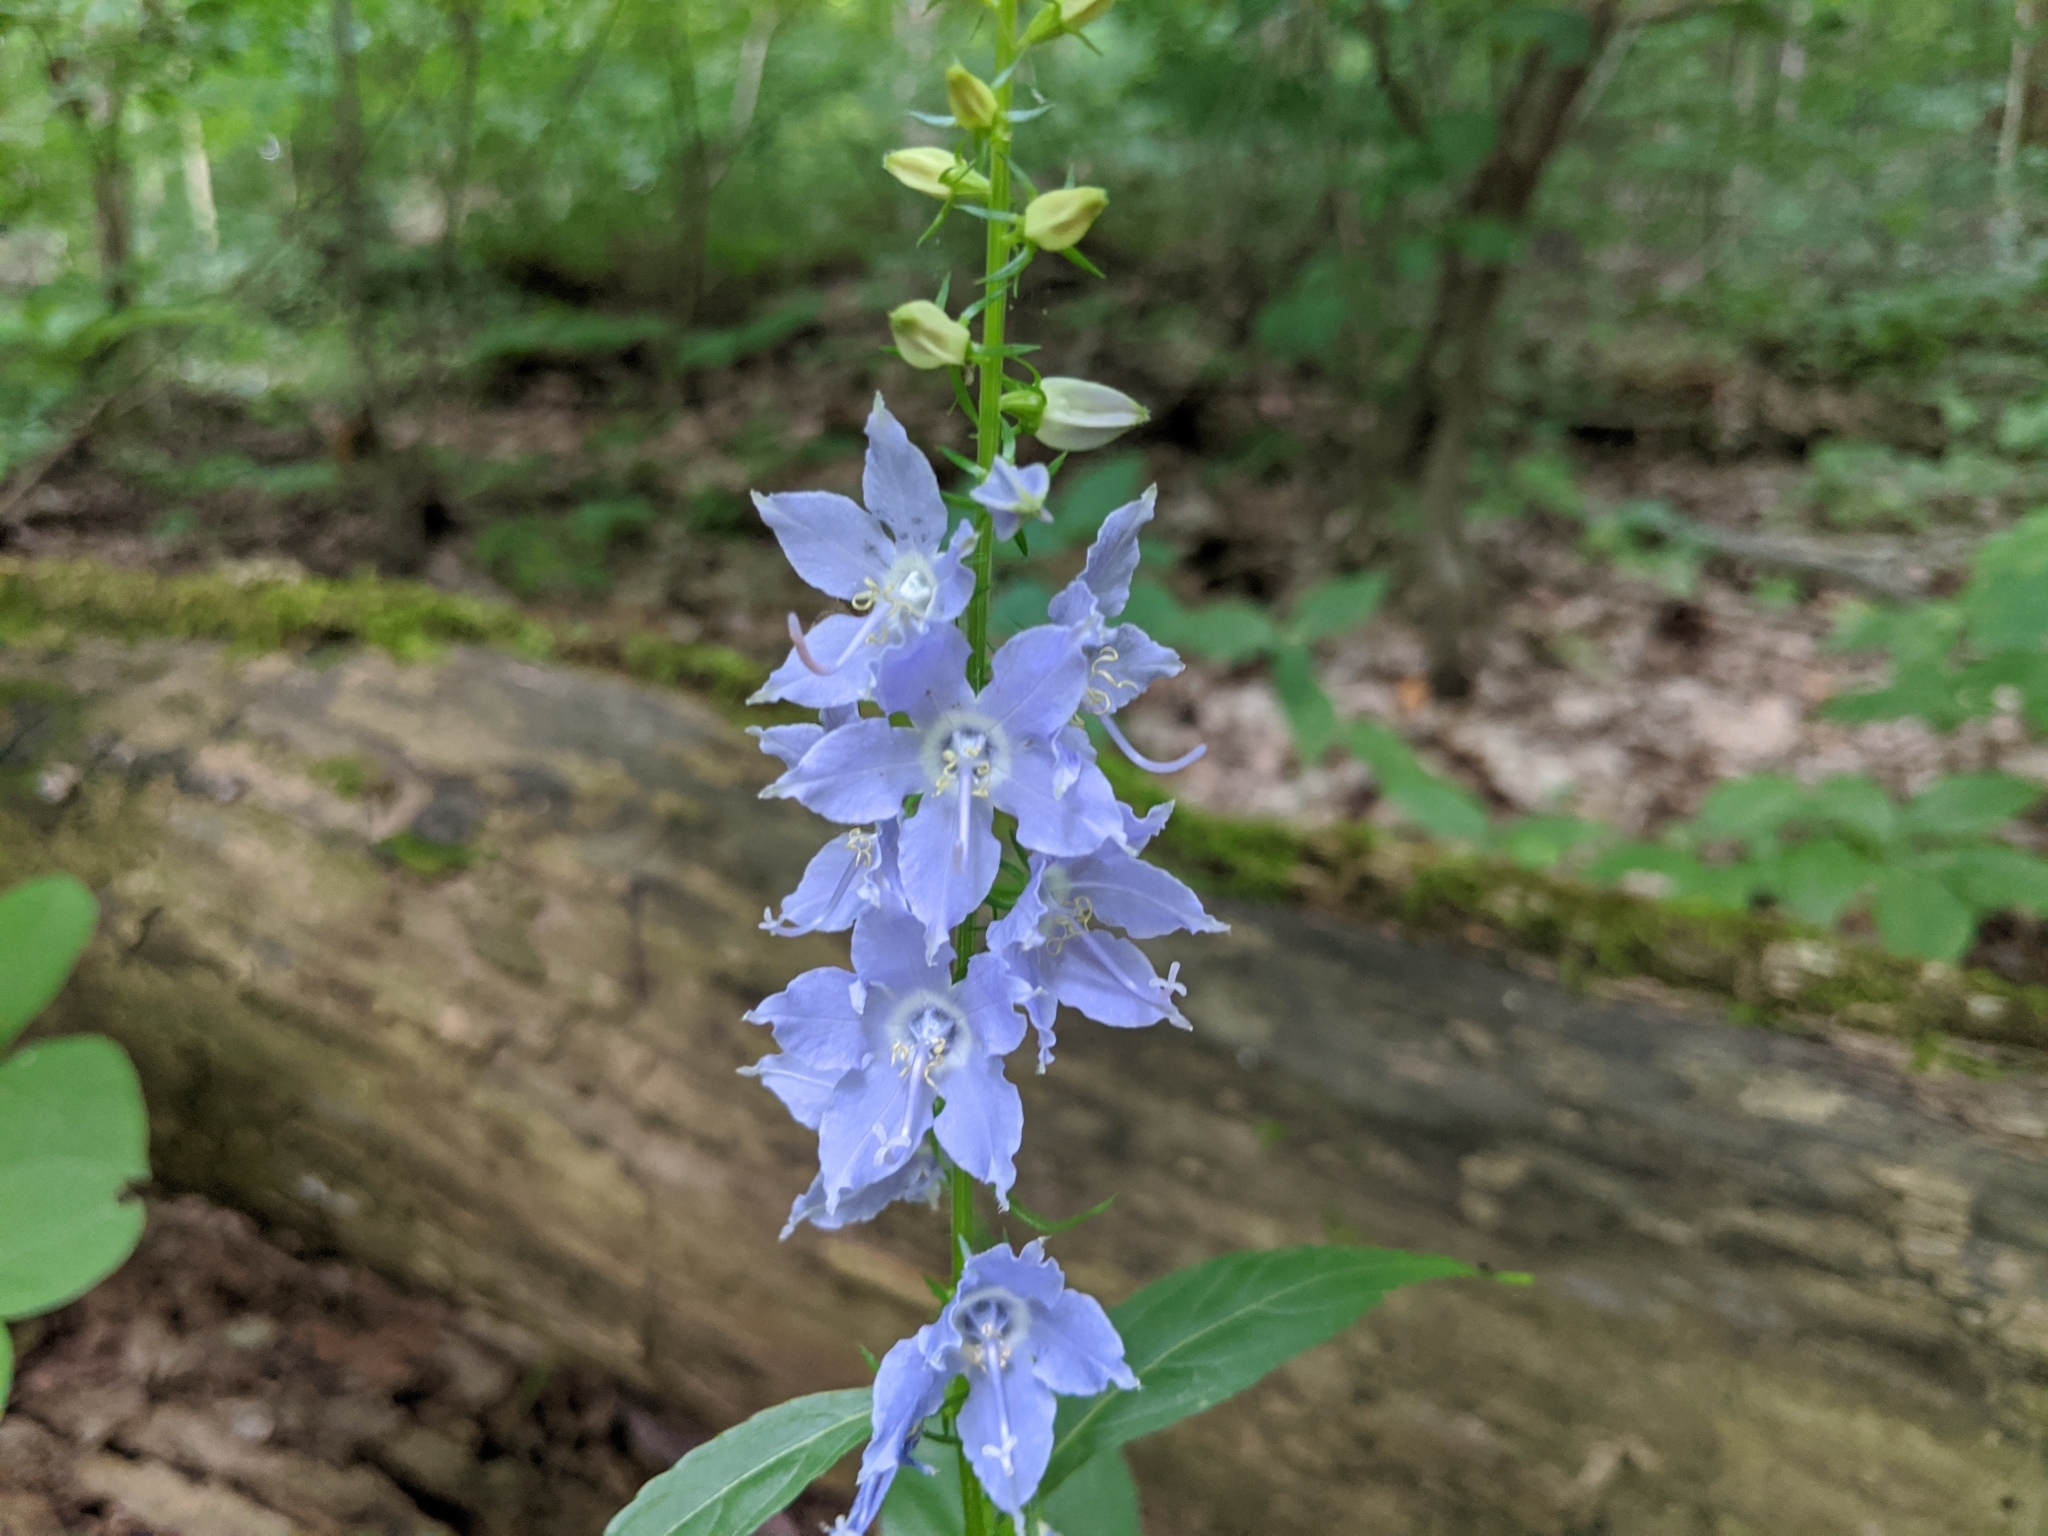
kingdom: Plantae
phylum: Tracheophyta
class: Magnoliopsida
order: Asterales
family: Campanulaceae
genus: Campanulastrum
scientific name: Campanulastrum americanum
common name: American bellflower
